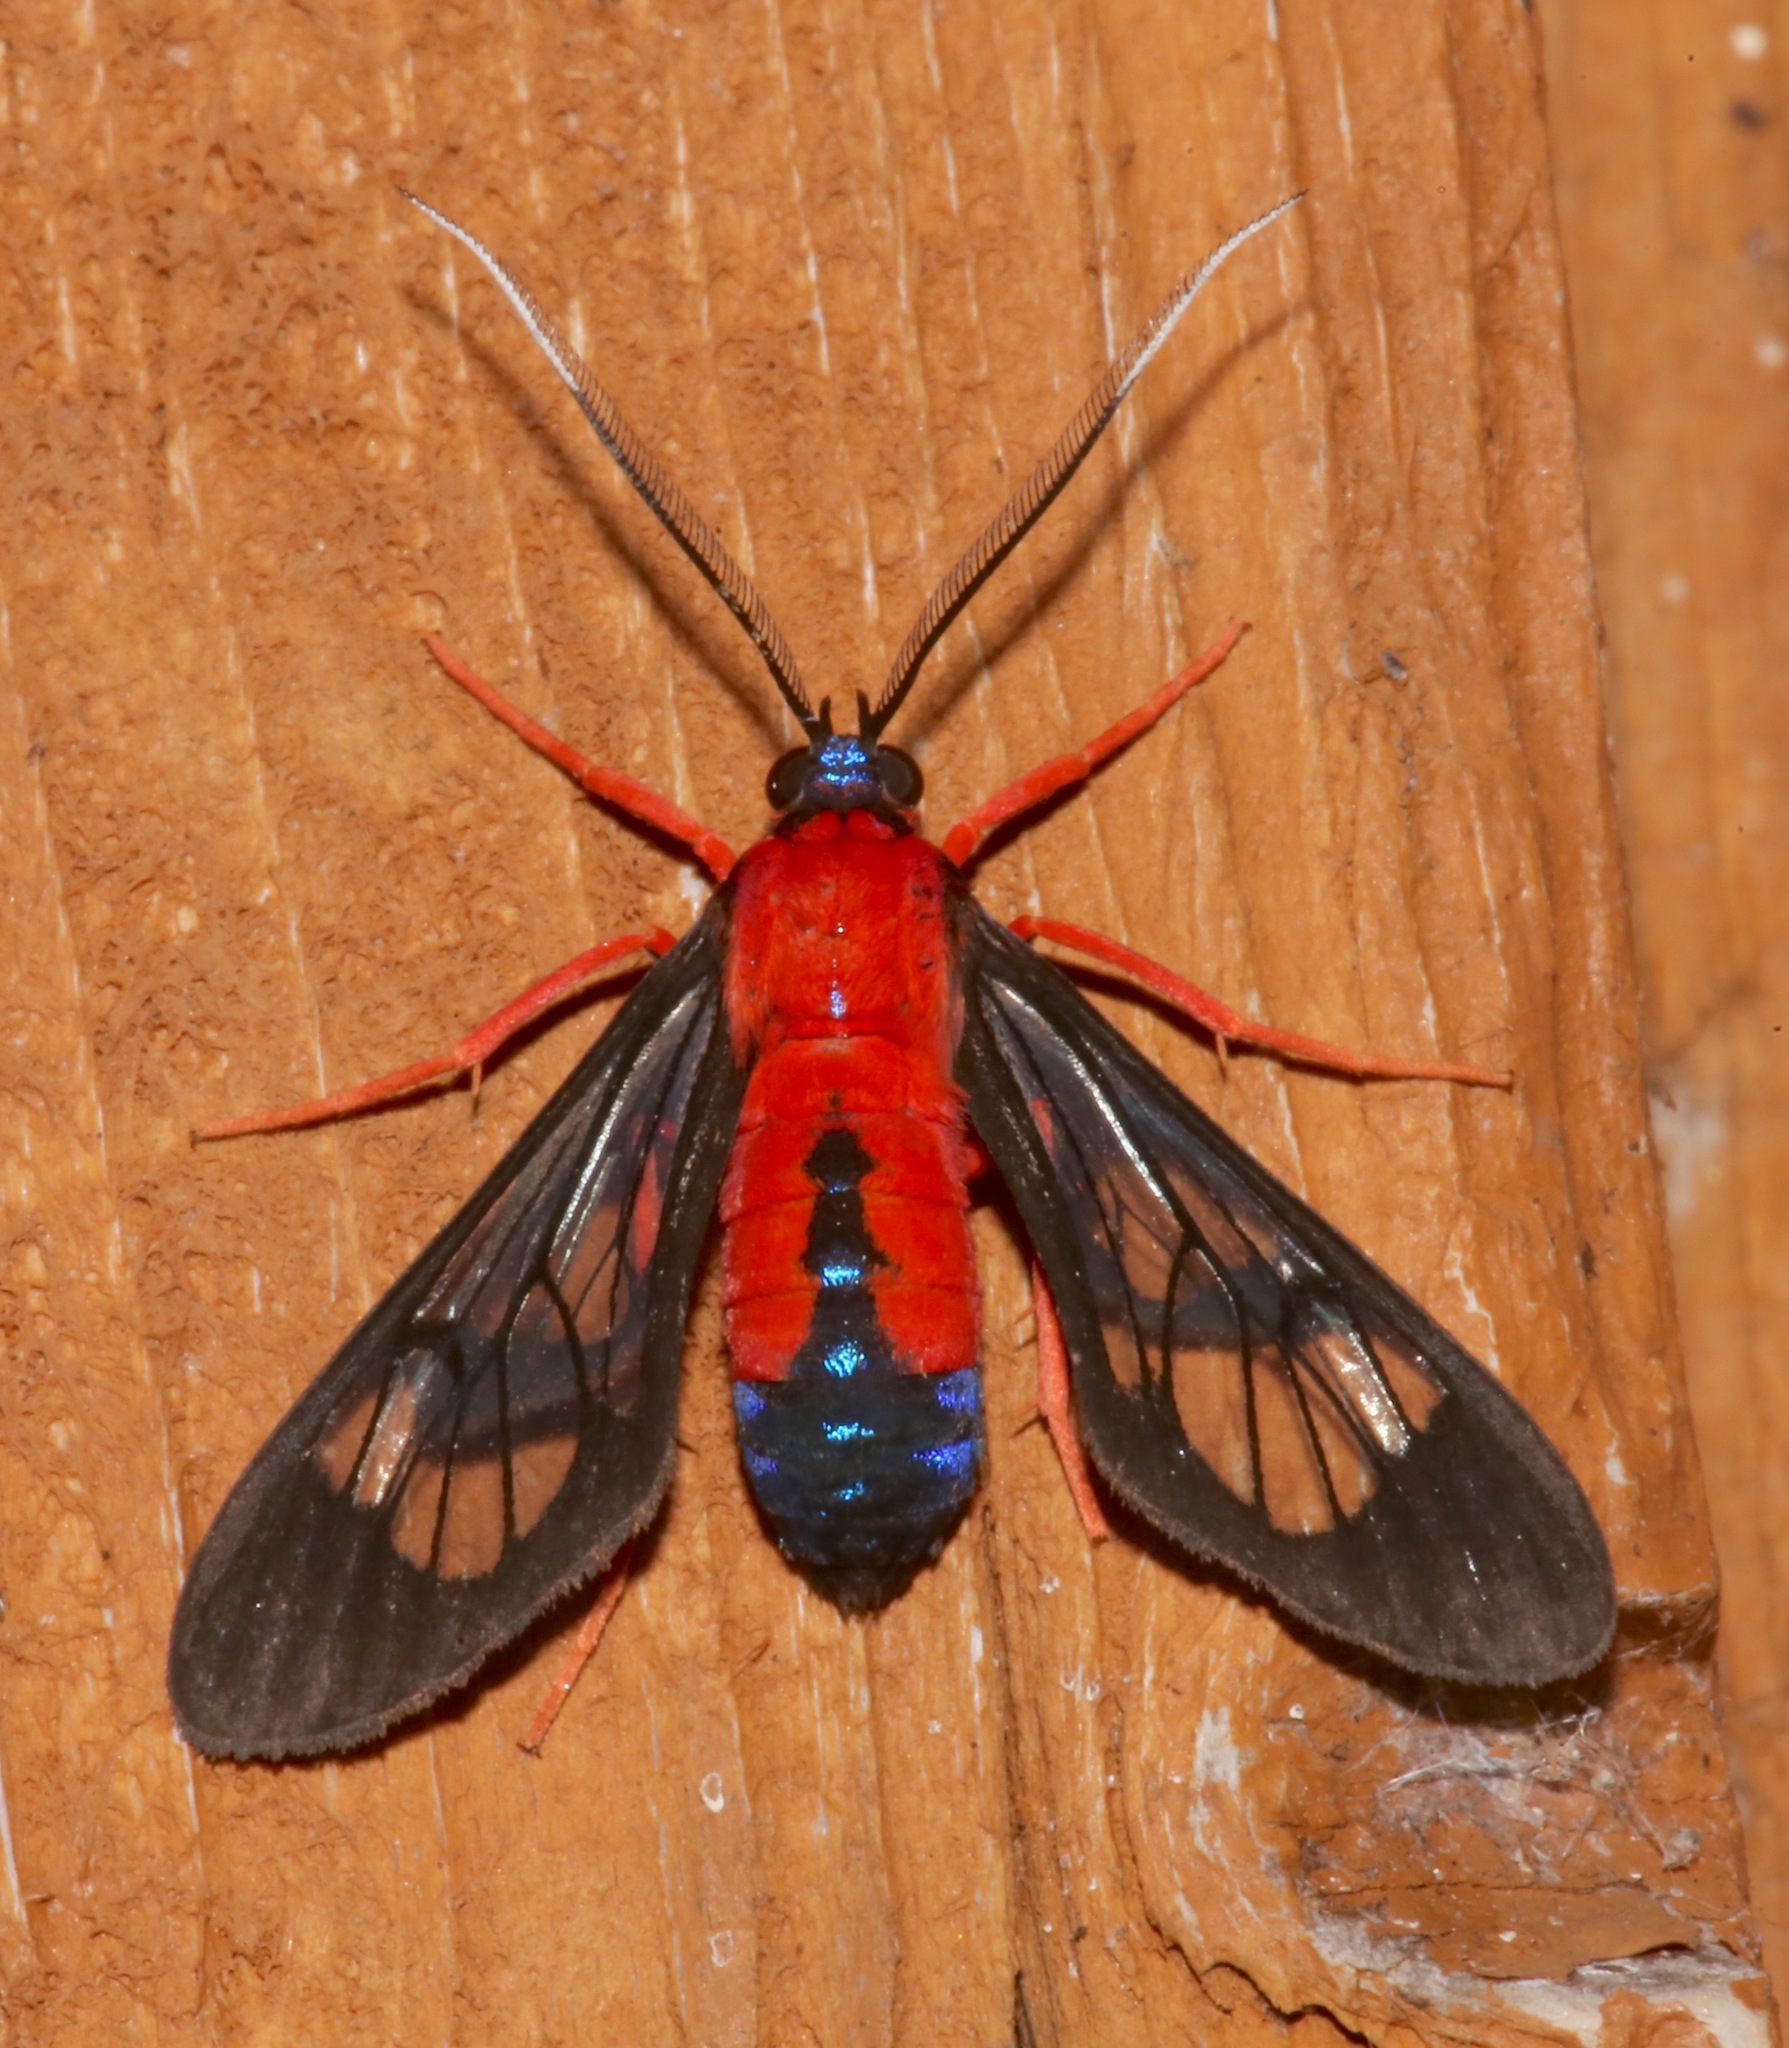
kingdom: Animalia
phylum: Arthropoda
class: Insecta
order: Lepidoptera
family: Erebidae
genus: Cosmosoma
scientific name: Cosmosoma myrodora
